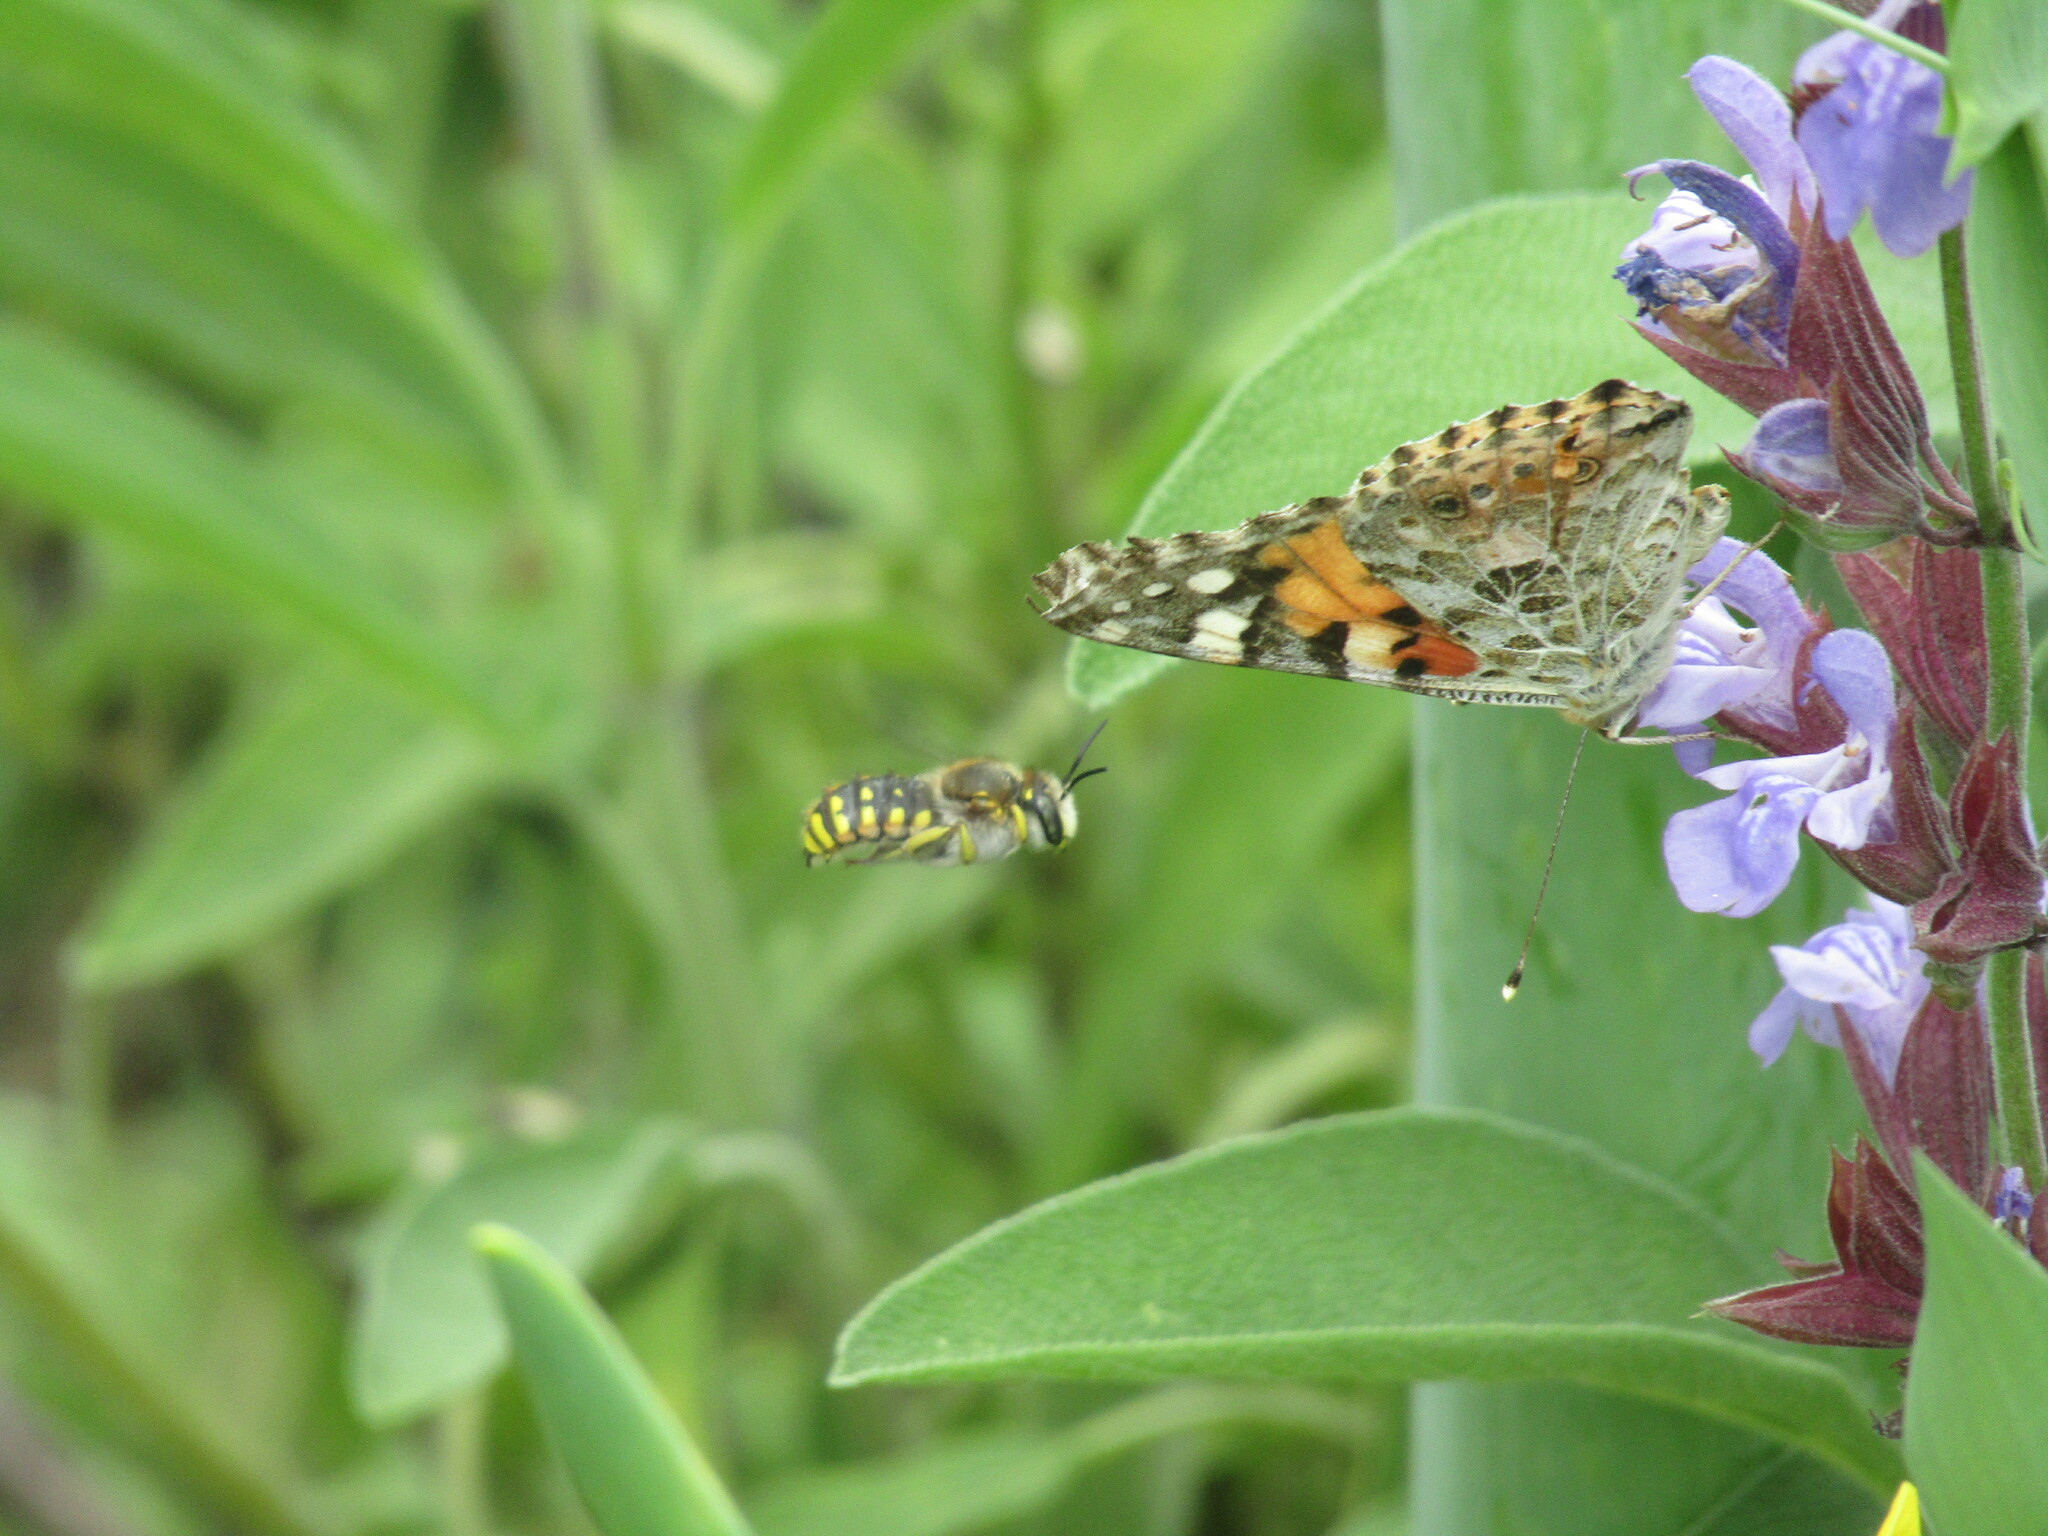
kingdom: Animalia
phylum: Arthropoda
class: Insecta
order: Lepidoptera
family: Nymphalidae
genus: Vanessa
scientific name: Vanessa cardui
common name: Painted lady
